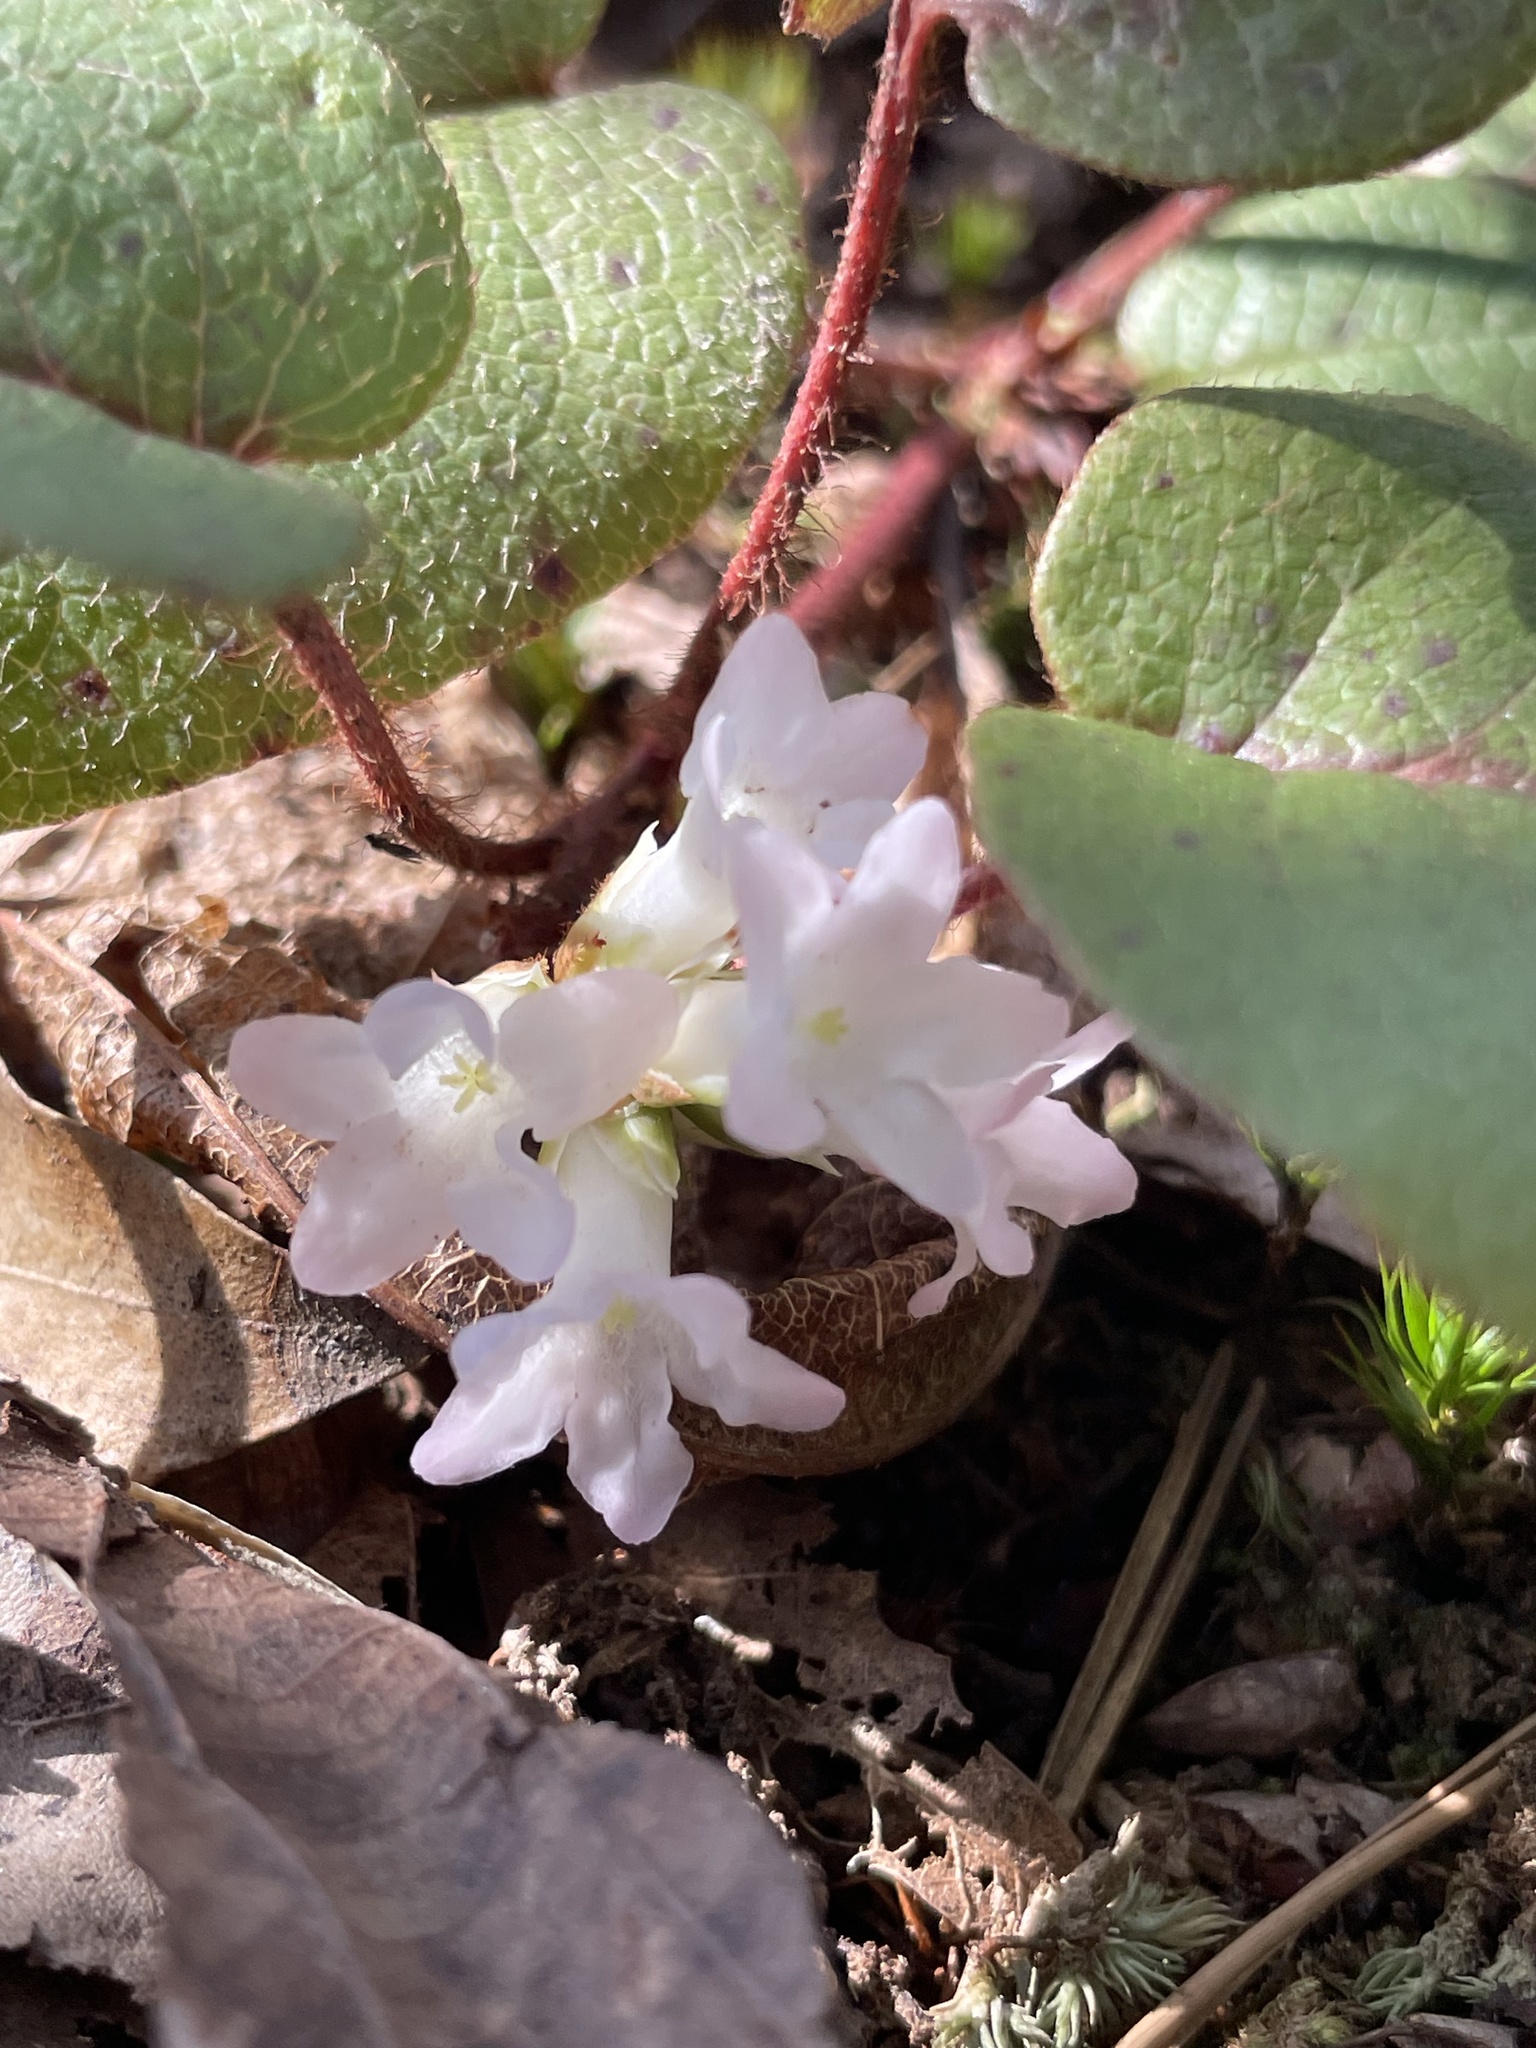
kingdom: Plantae
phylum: Tracheophyta
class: Magnoliopsida
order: Ericales
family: Ericaceae
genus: Epigaea
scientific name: Epigaea repens
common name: Gravelroot
